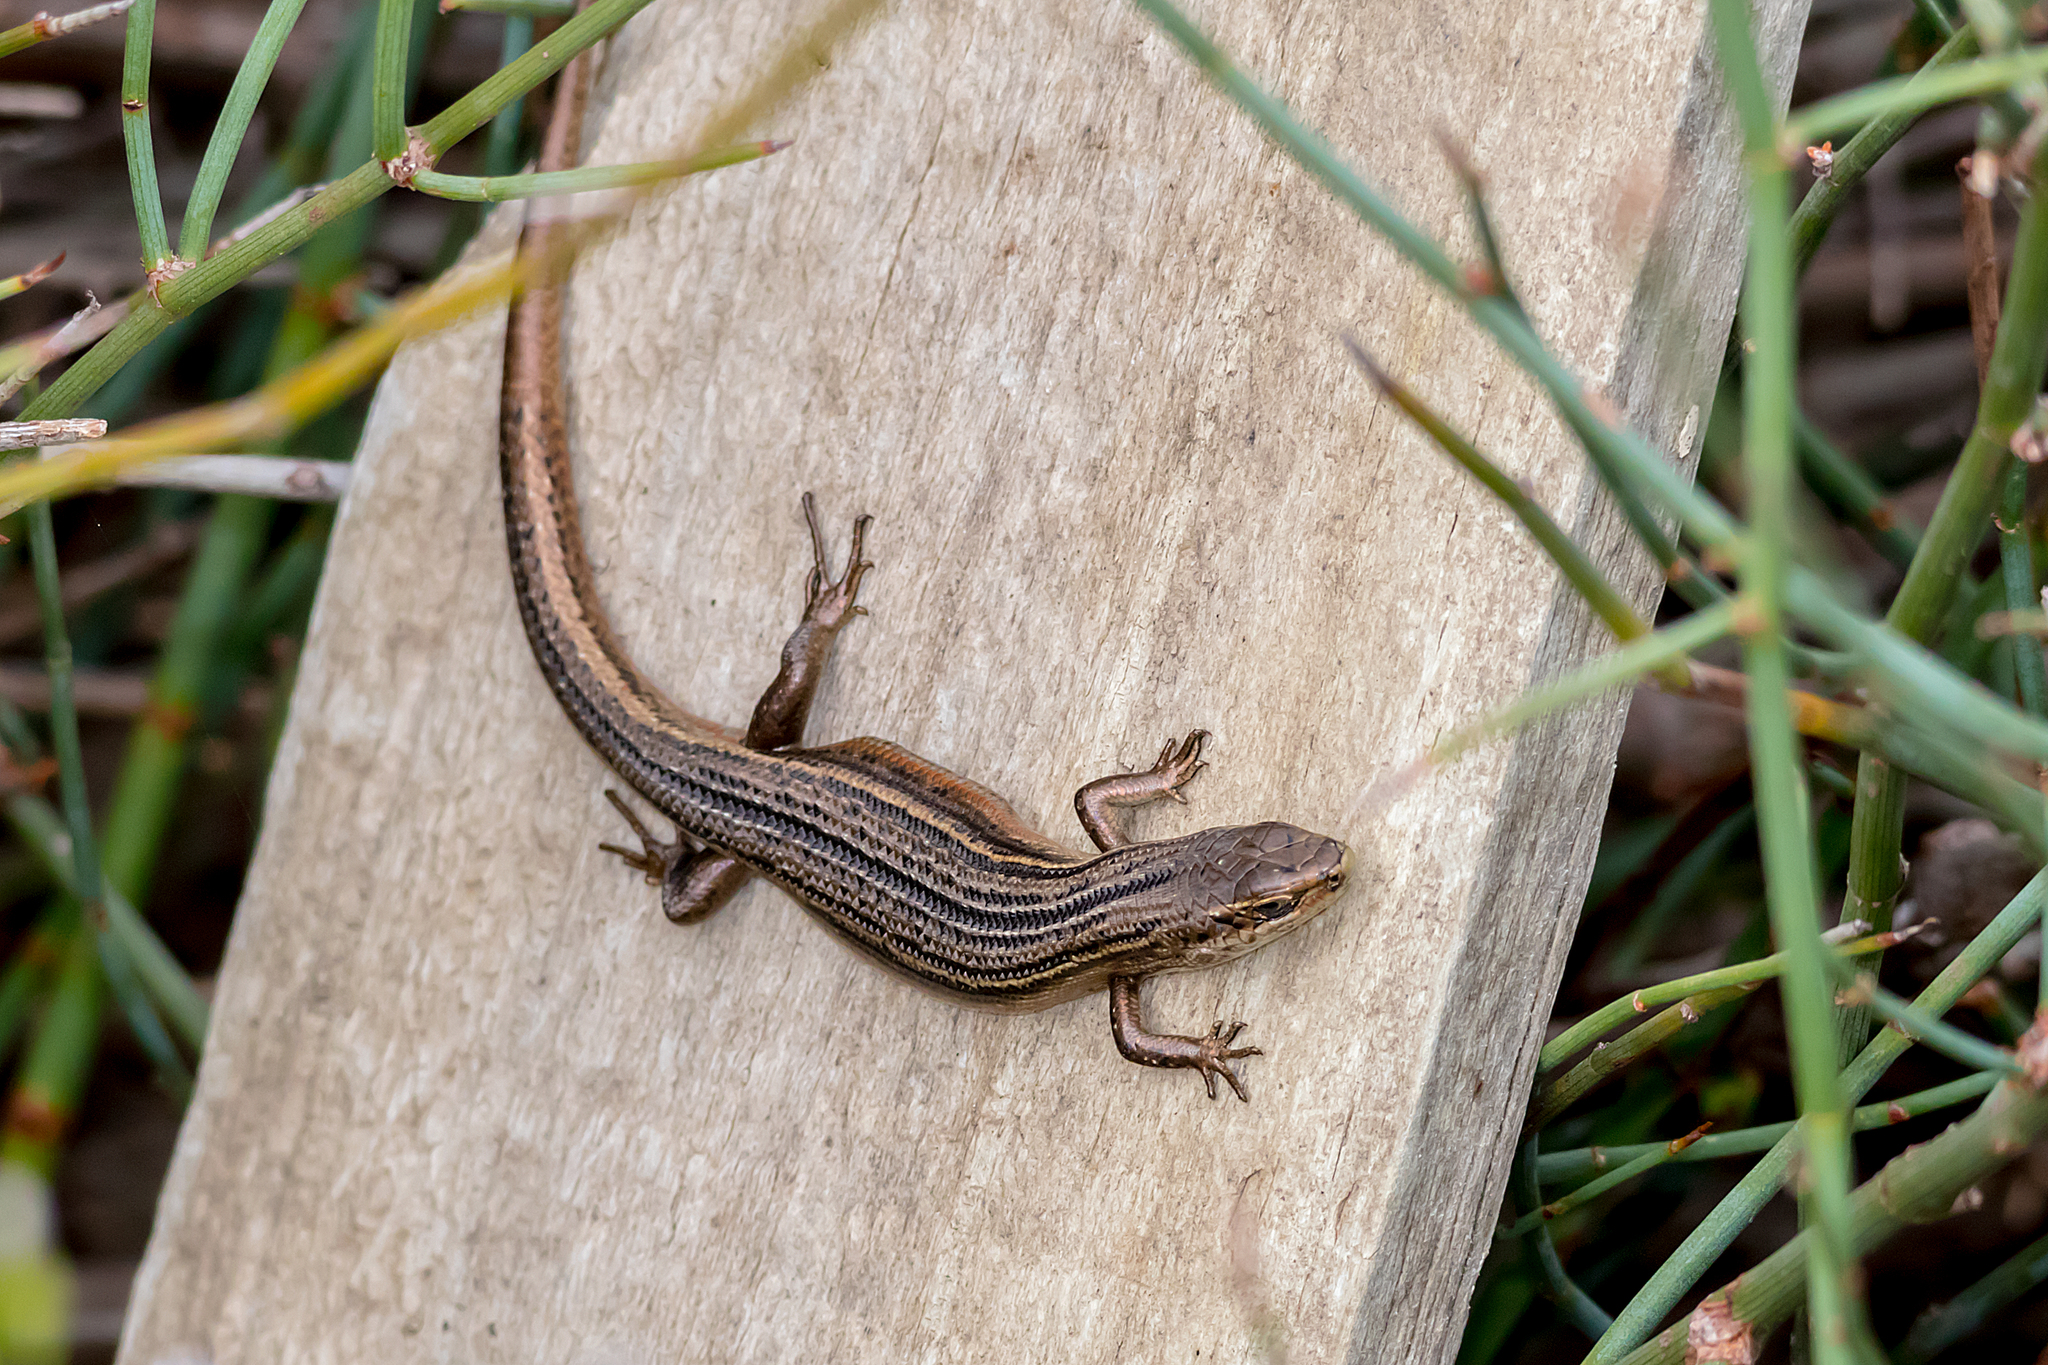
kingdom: Animalia
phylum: Chordata
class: Squamata
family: Scincidae
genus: Pseudemoia
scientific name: Pseudemoia pagenstecheri
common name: Southern grass tussock skink
